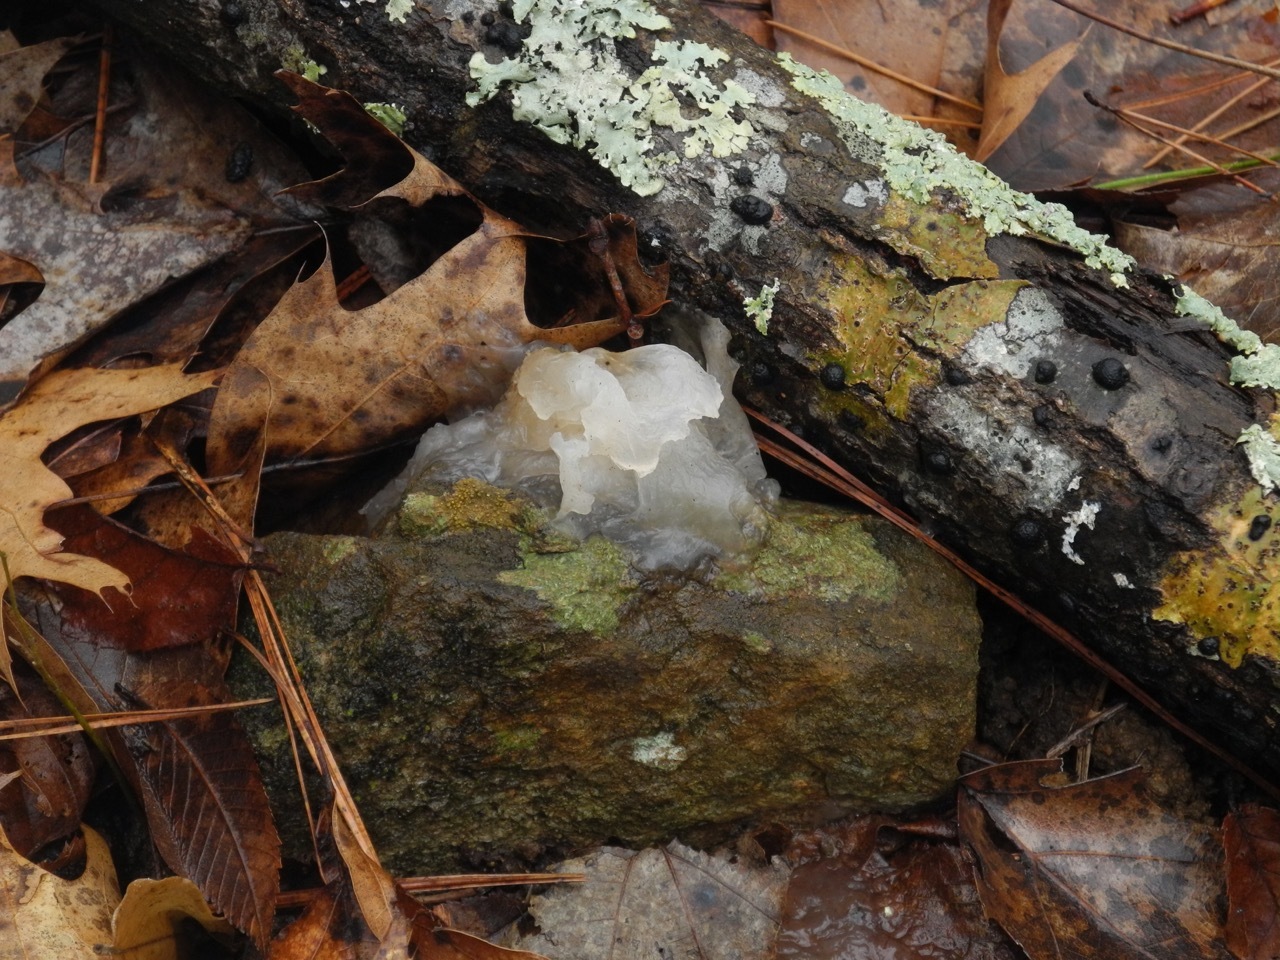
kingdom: Fungi
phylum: Basidiomycota
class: Tremellomycetes
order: Tremellales
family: Tremellaceae
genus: Tremella
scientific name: Tremella fuciformis
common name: Snow fungus
